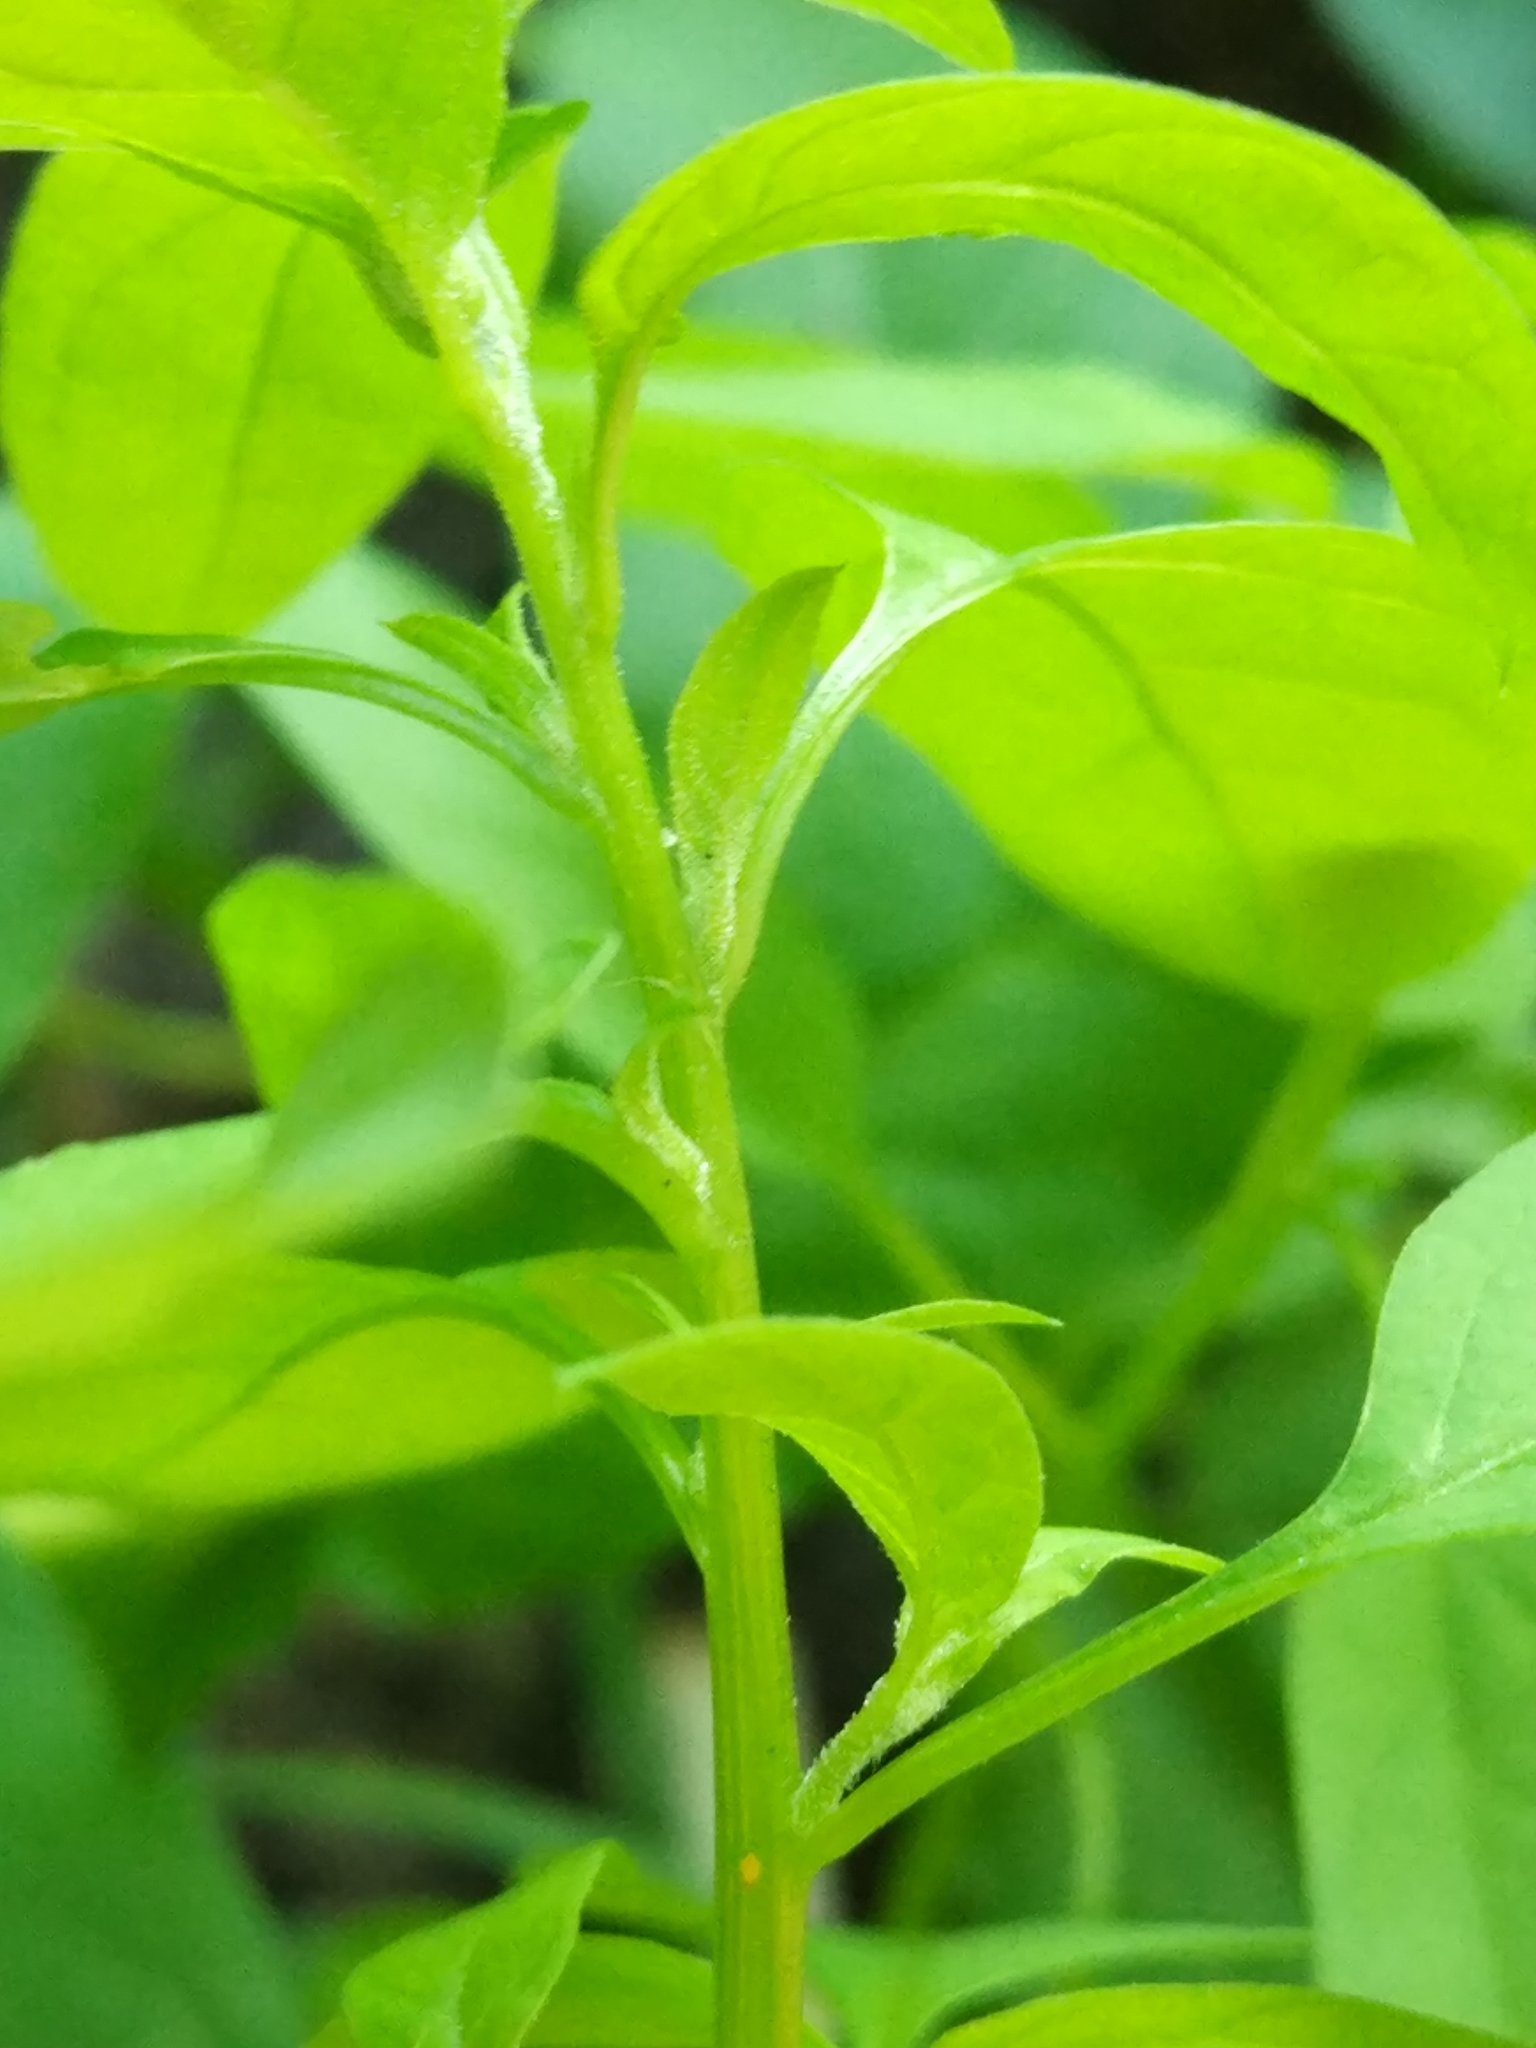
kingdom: Plantae
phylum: Tracheophyta
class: Magnoliopsida
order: Caryophyllales
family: Amaranthaceae
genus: Lipandra
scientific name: Lipandra polysperma
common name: Many-seed goosefoot
